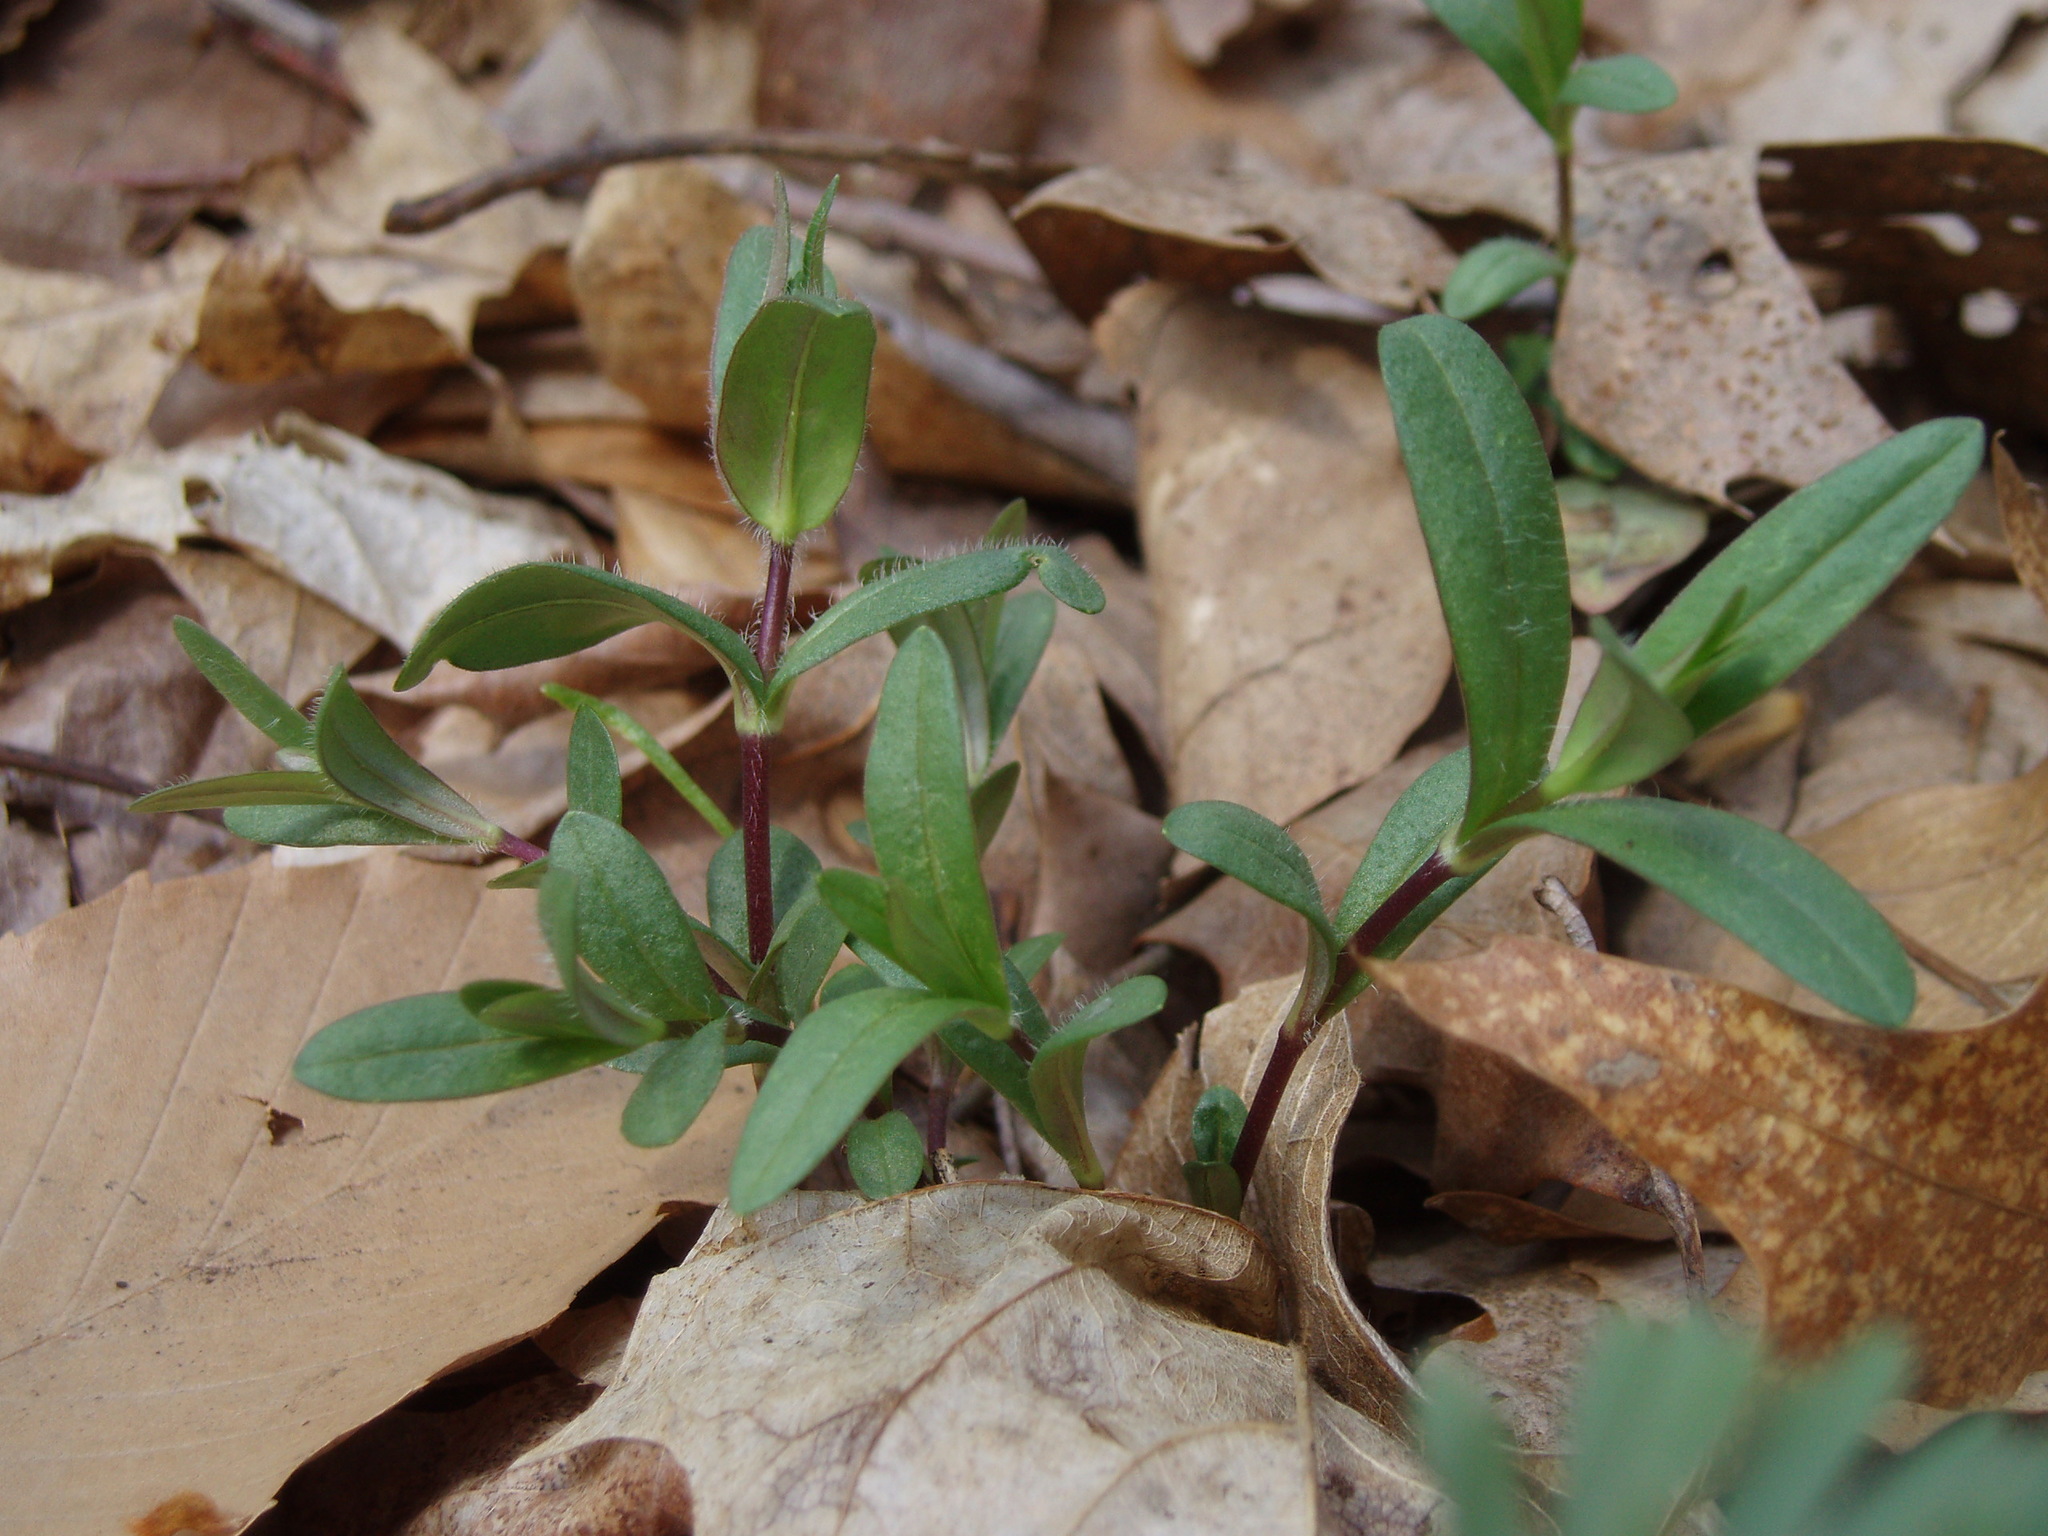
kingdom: Plantae
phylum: Tracheophyta
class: Magnoliopsida
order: Ericales
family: Polemoniaceae
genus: Phlox
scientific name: Phlox divaricata
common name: Blue phlox
